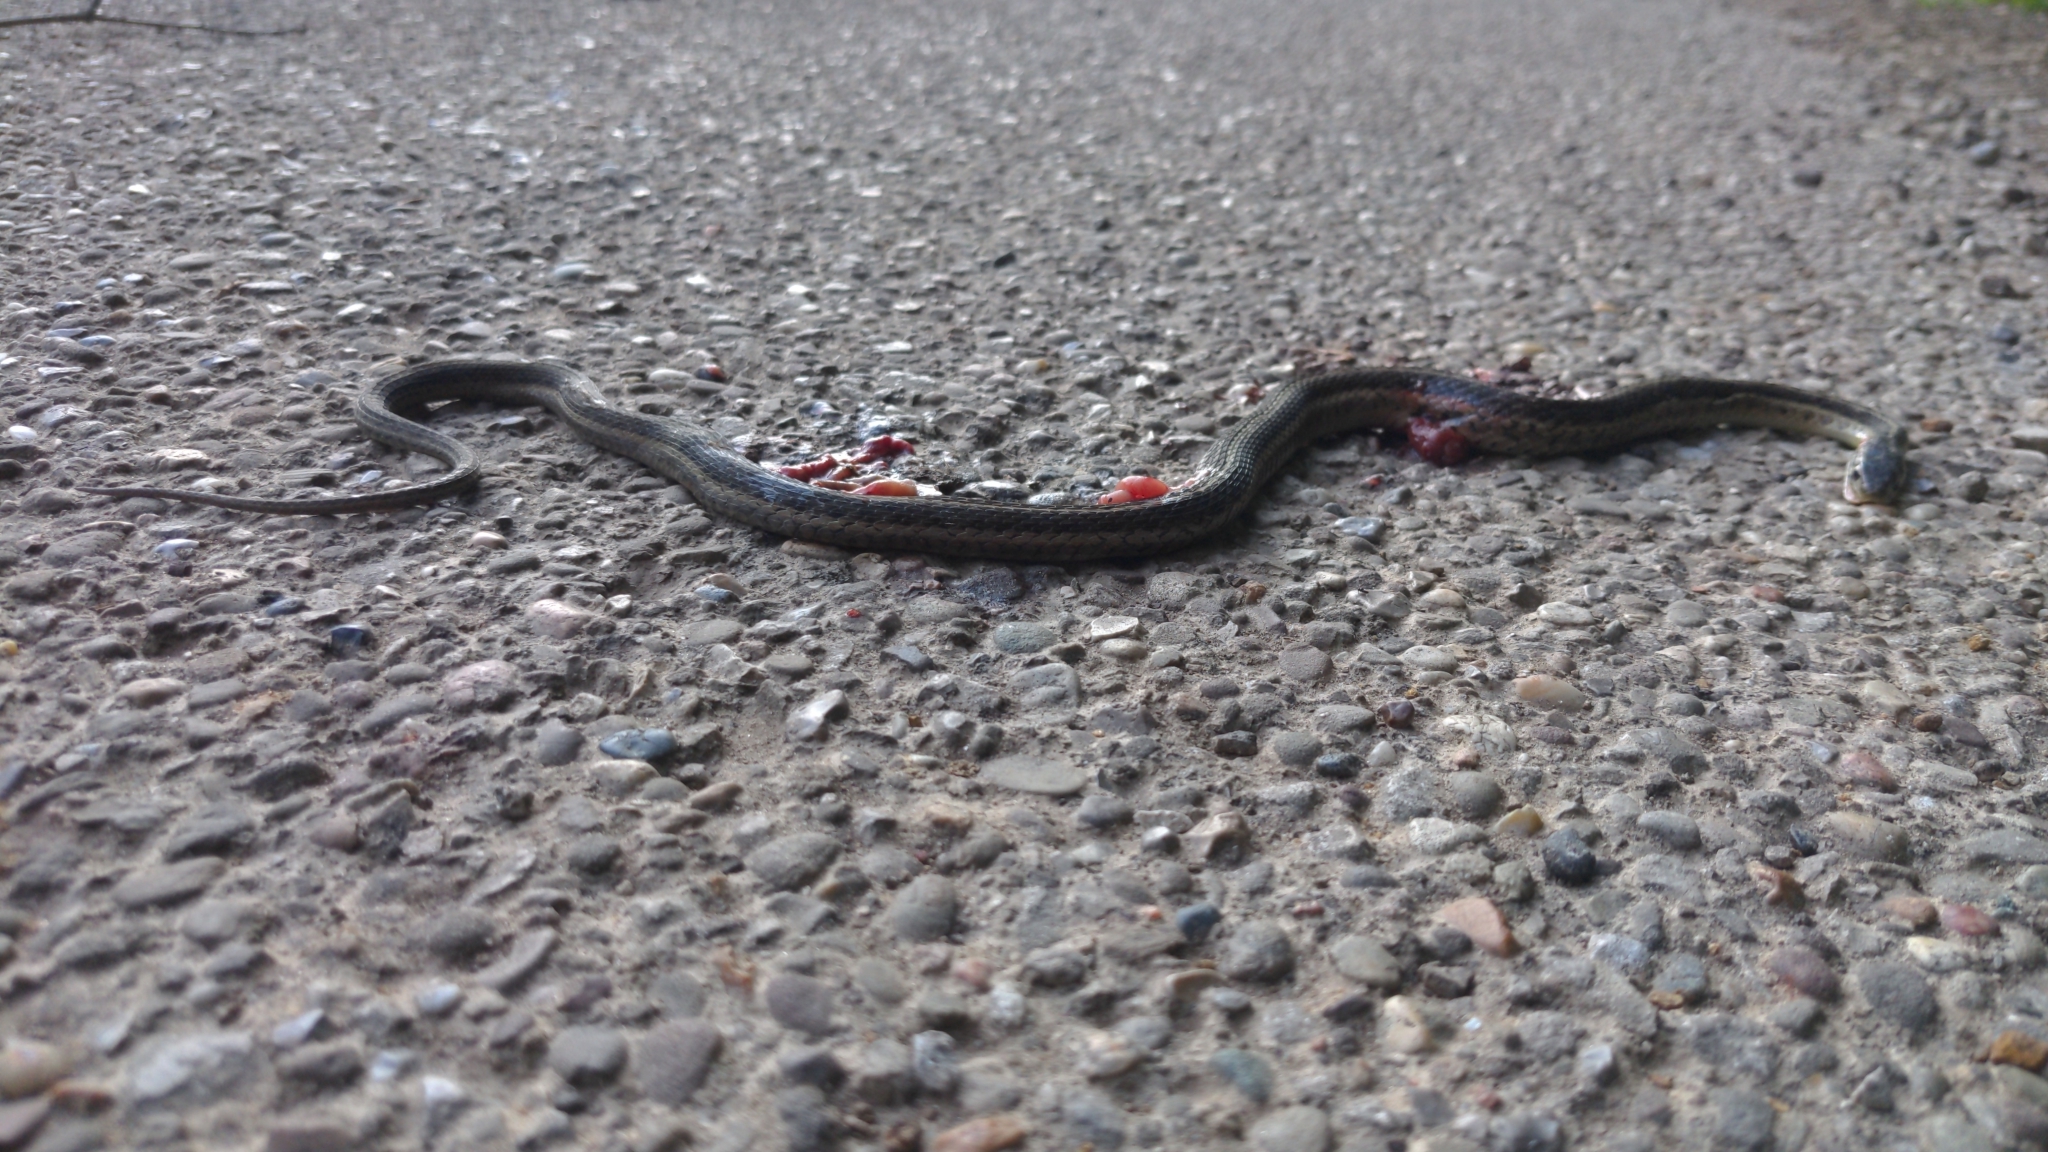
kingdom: Animalia
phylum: Chordata
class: Squamata
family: Colubridae
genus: Thamnophis
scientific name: Thamnophis sirtalis
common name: Common garter snake
